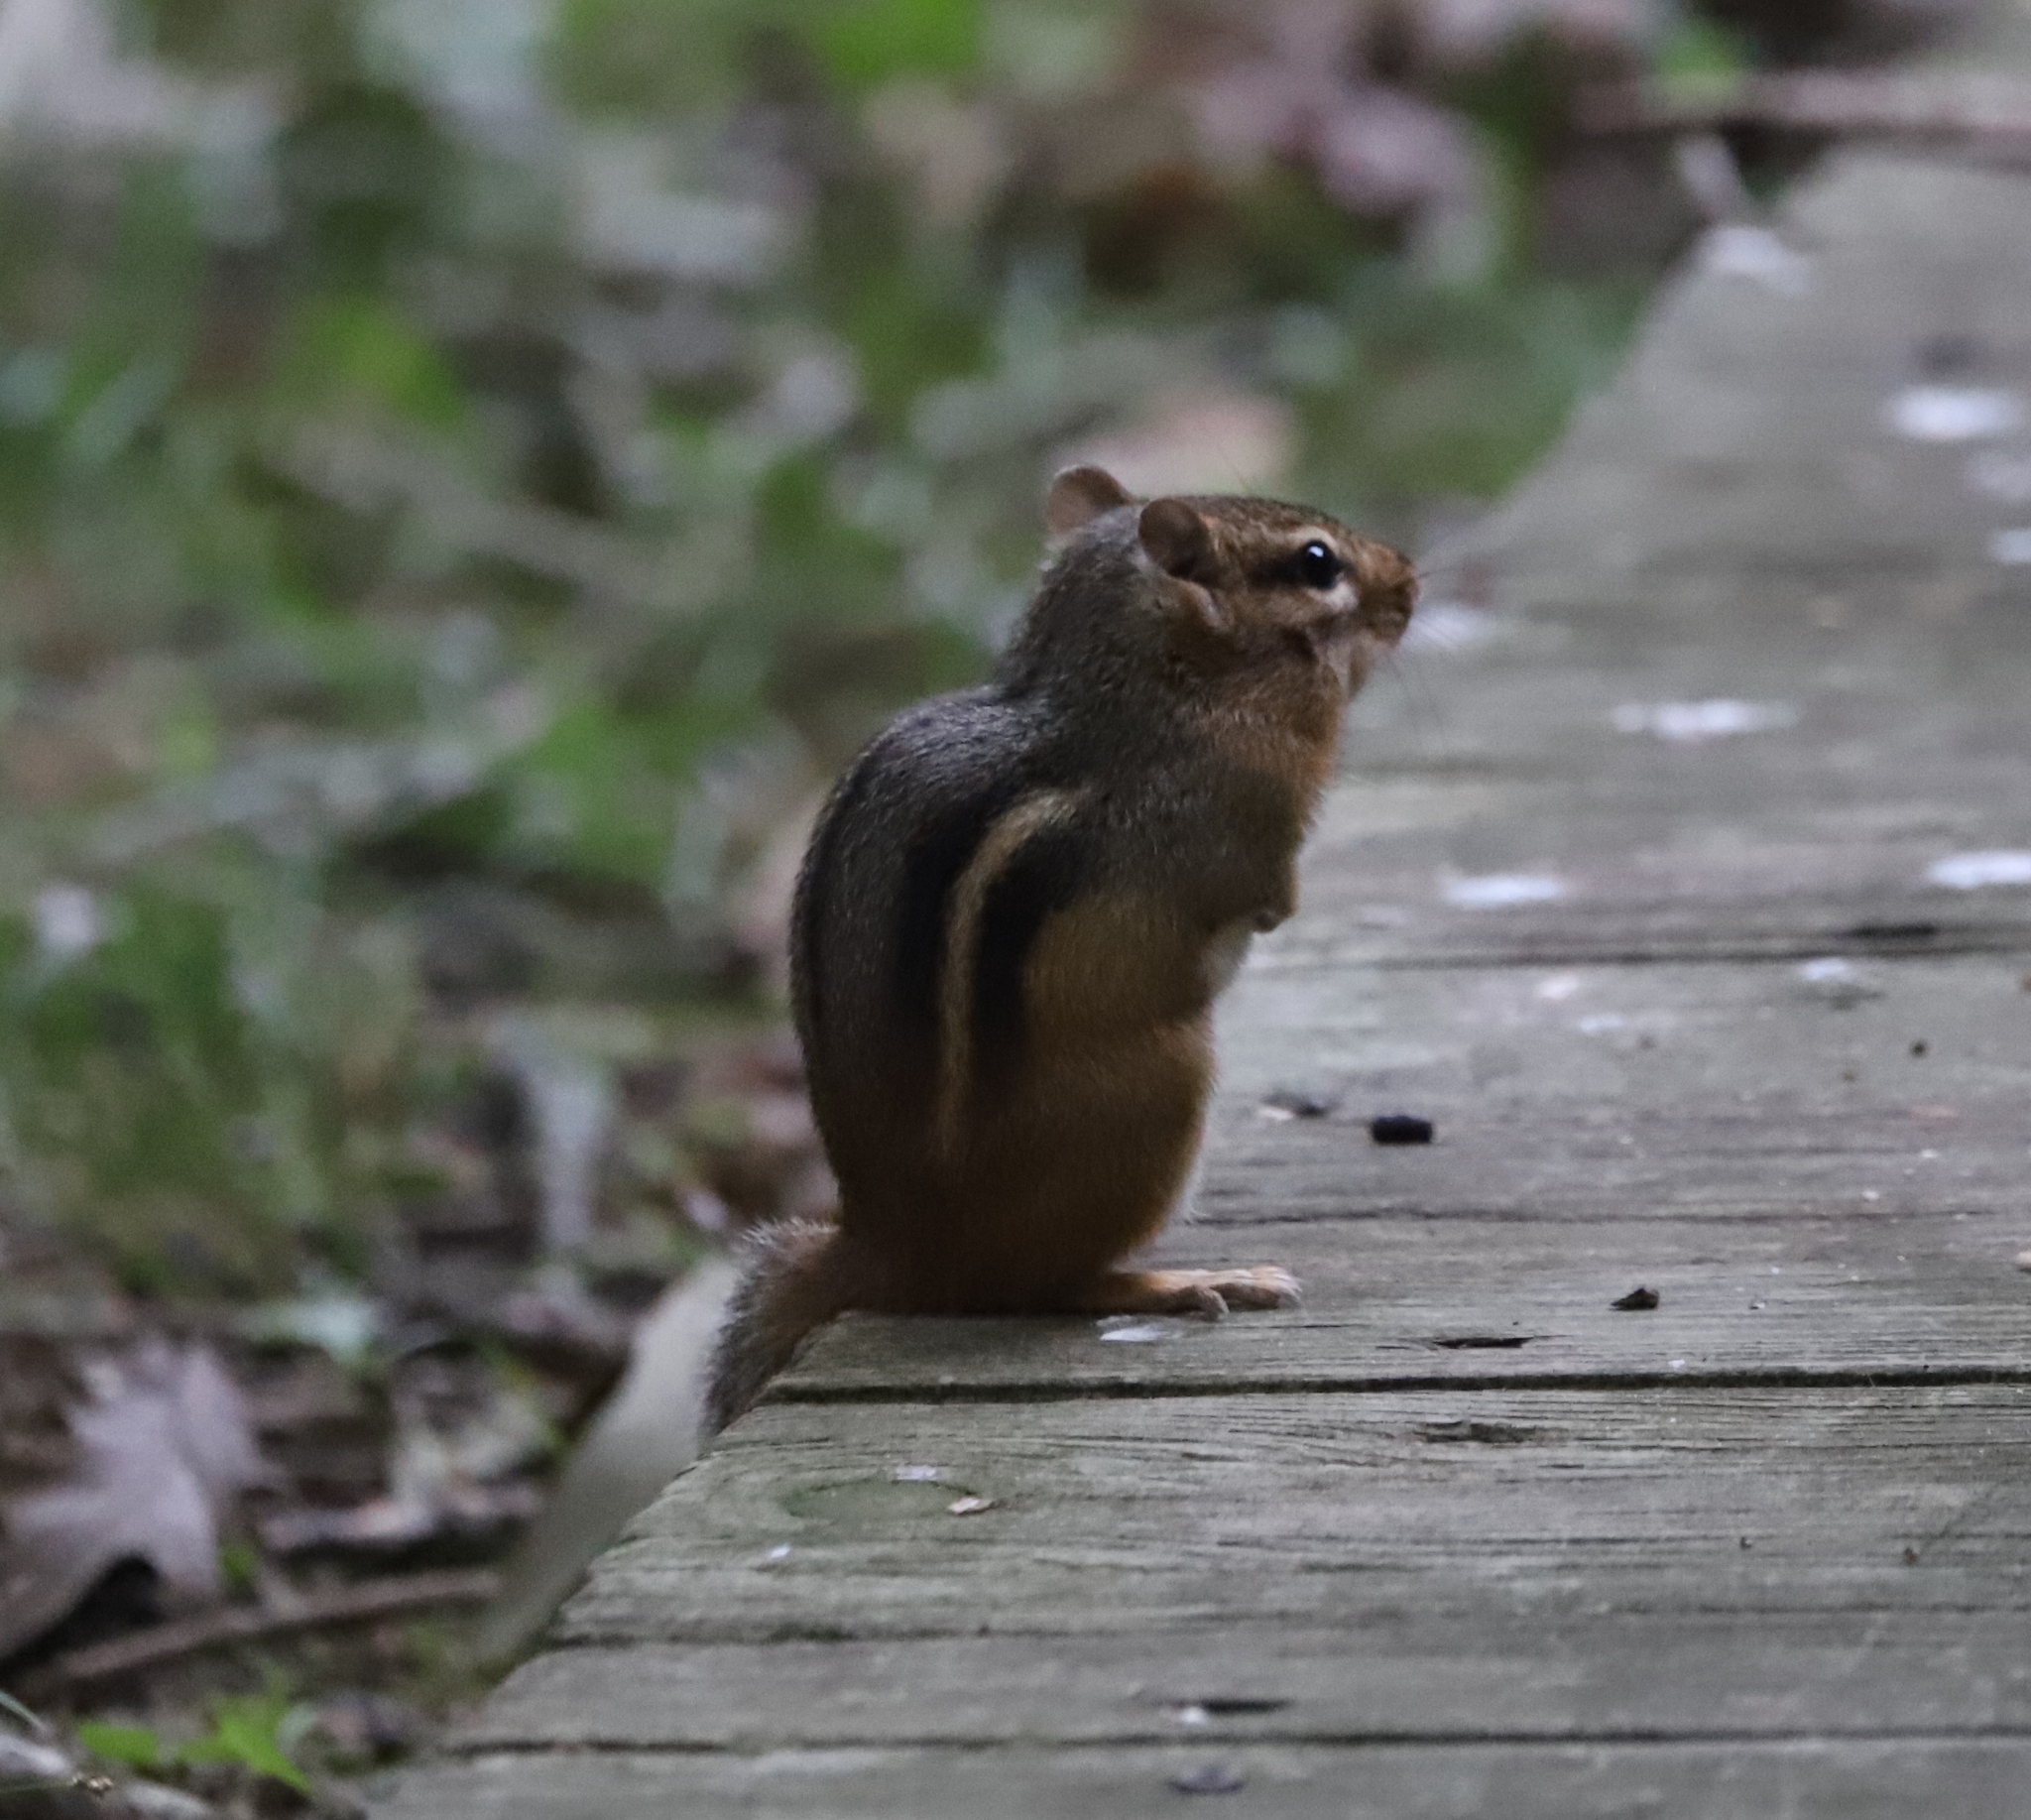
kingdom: Animalia
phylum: Chordata
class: Mammalia
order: Rodentia
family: Sciuridae
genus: Tamias
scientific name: Tamias striatus
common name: Eastern chipmunk
